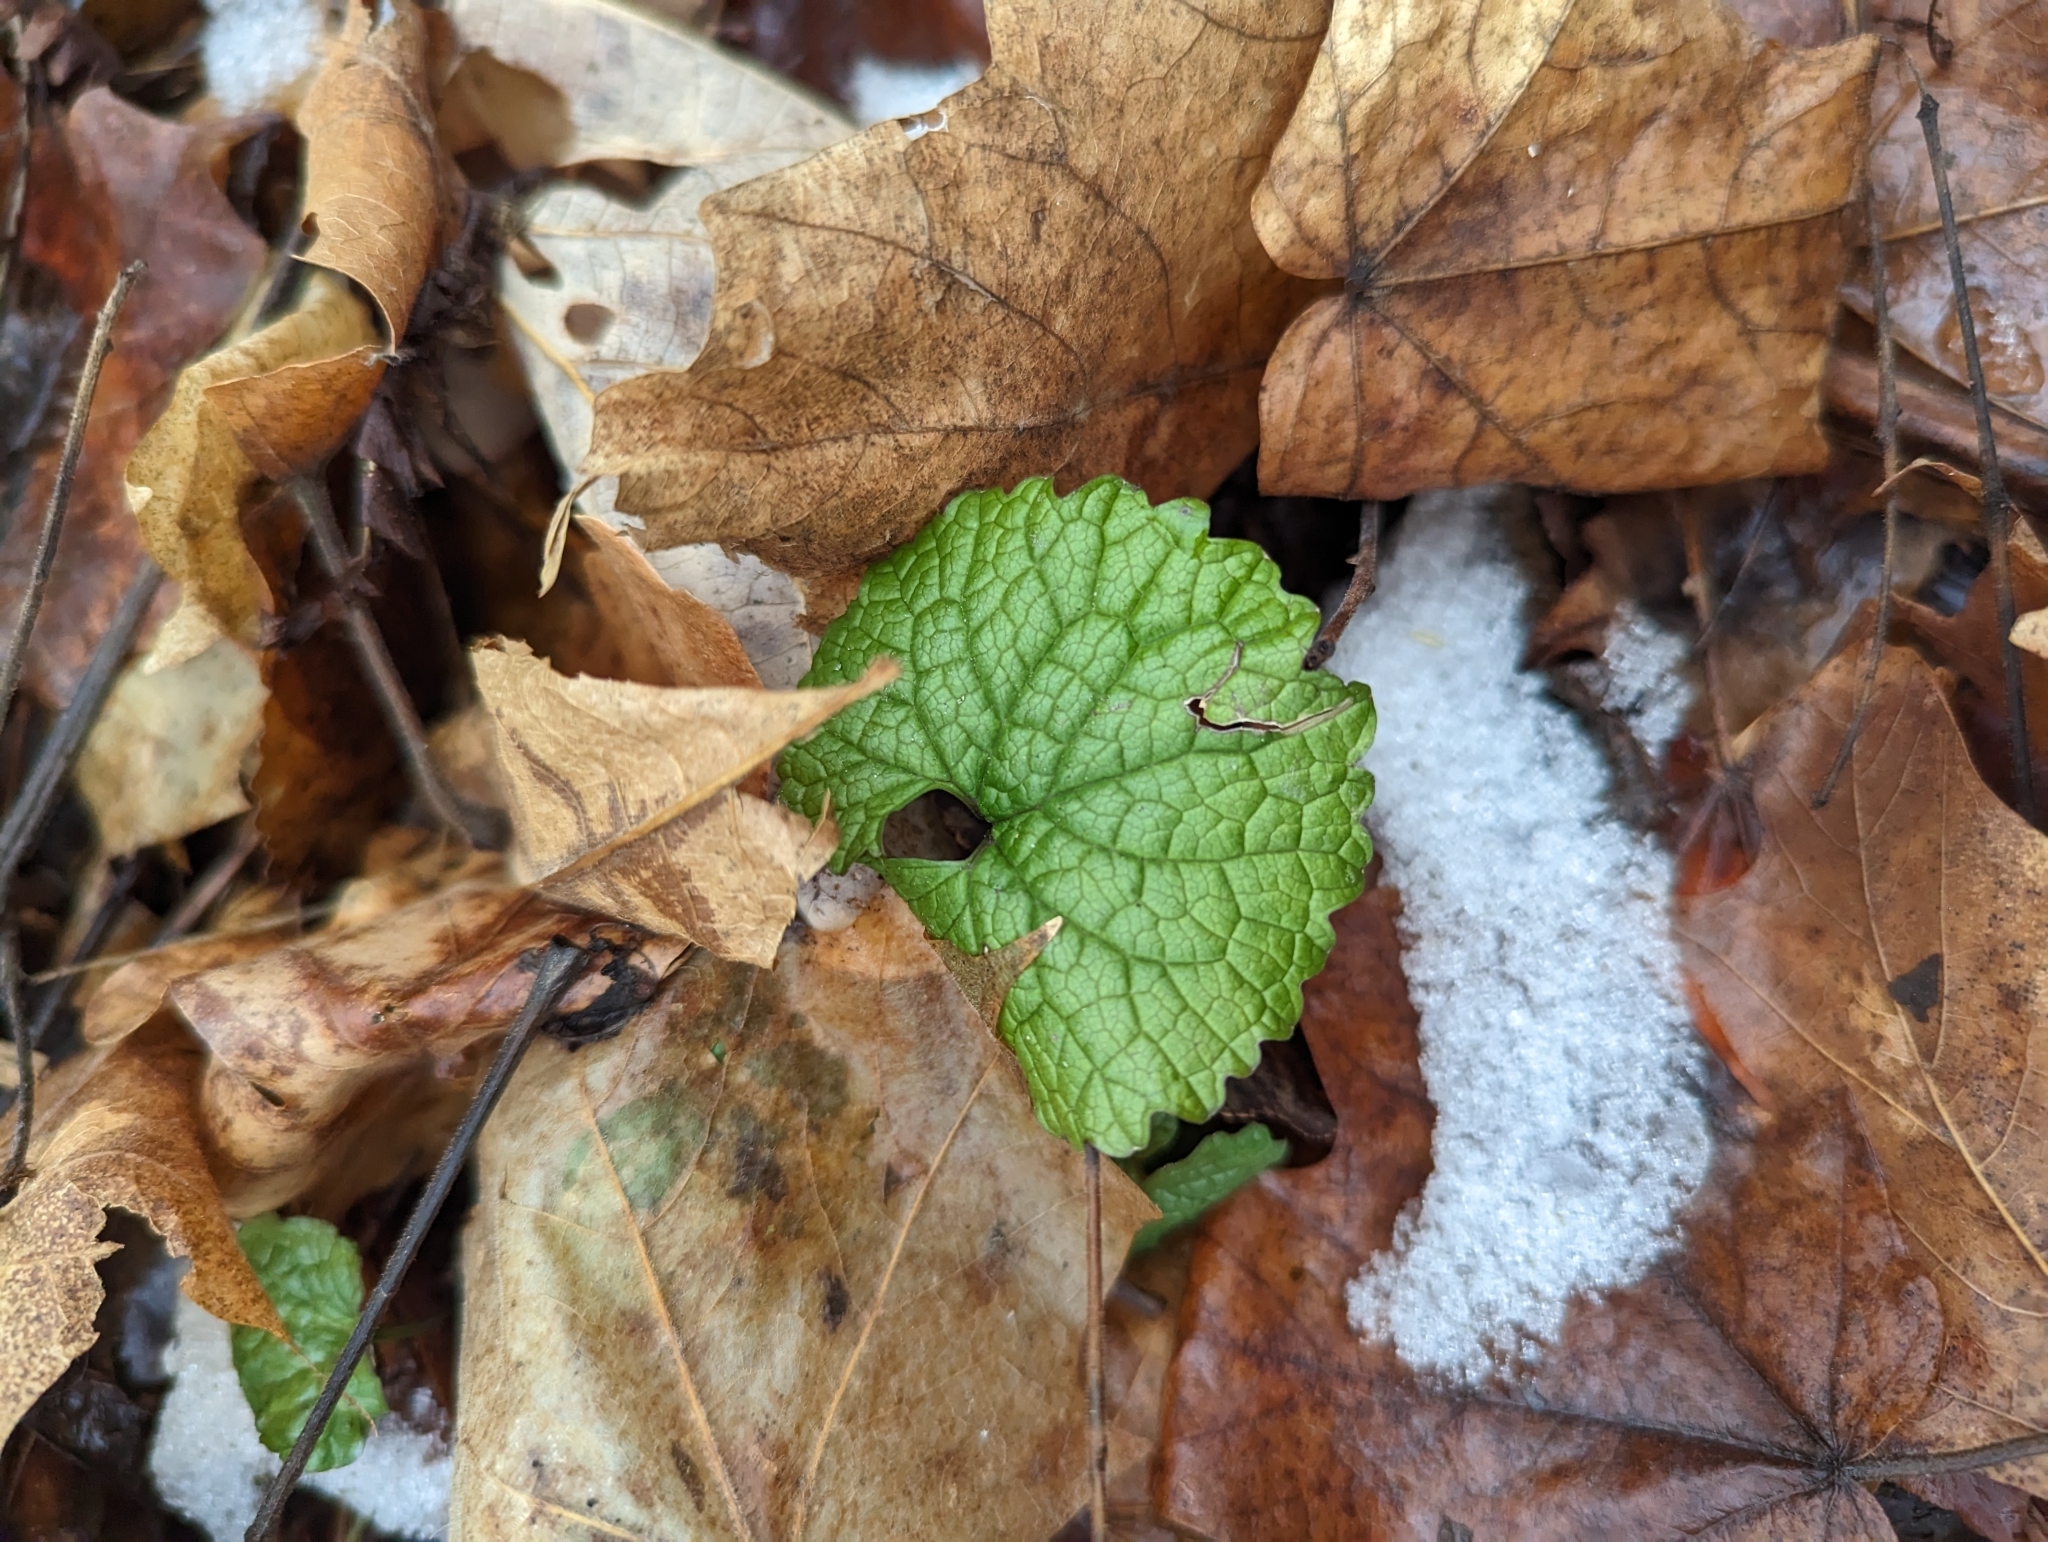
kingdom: Plantae
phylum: Tracheophyta
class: Magnoliopsida
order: Brassicales
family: Brassicaceae
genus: Alliaria
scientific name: Alliaria petiolata
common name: Garlic mustard
